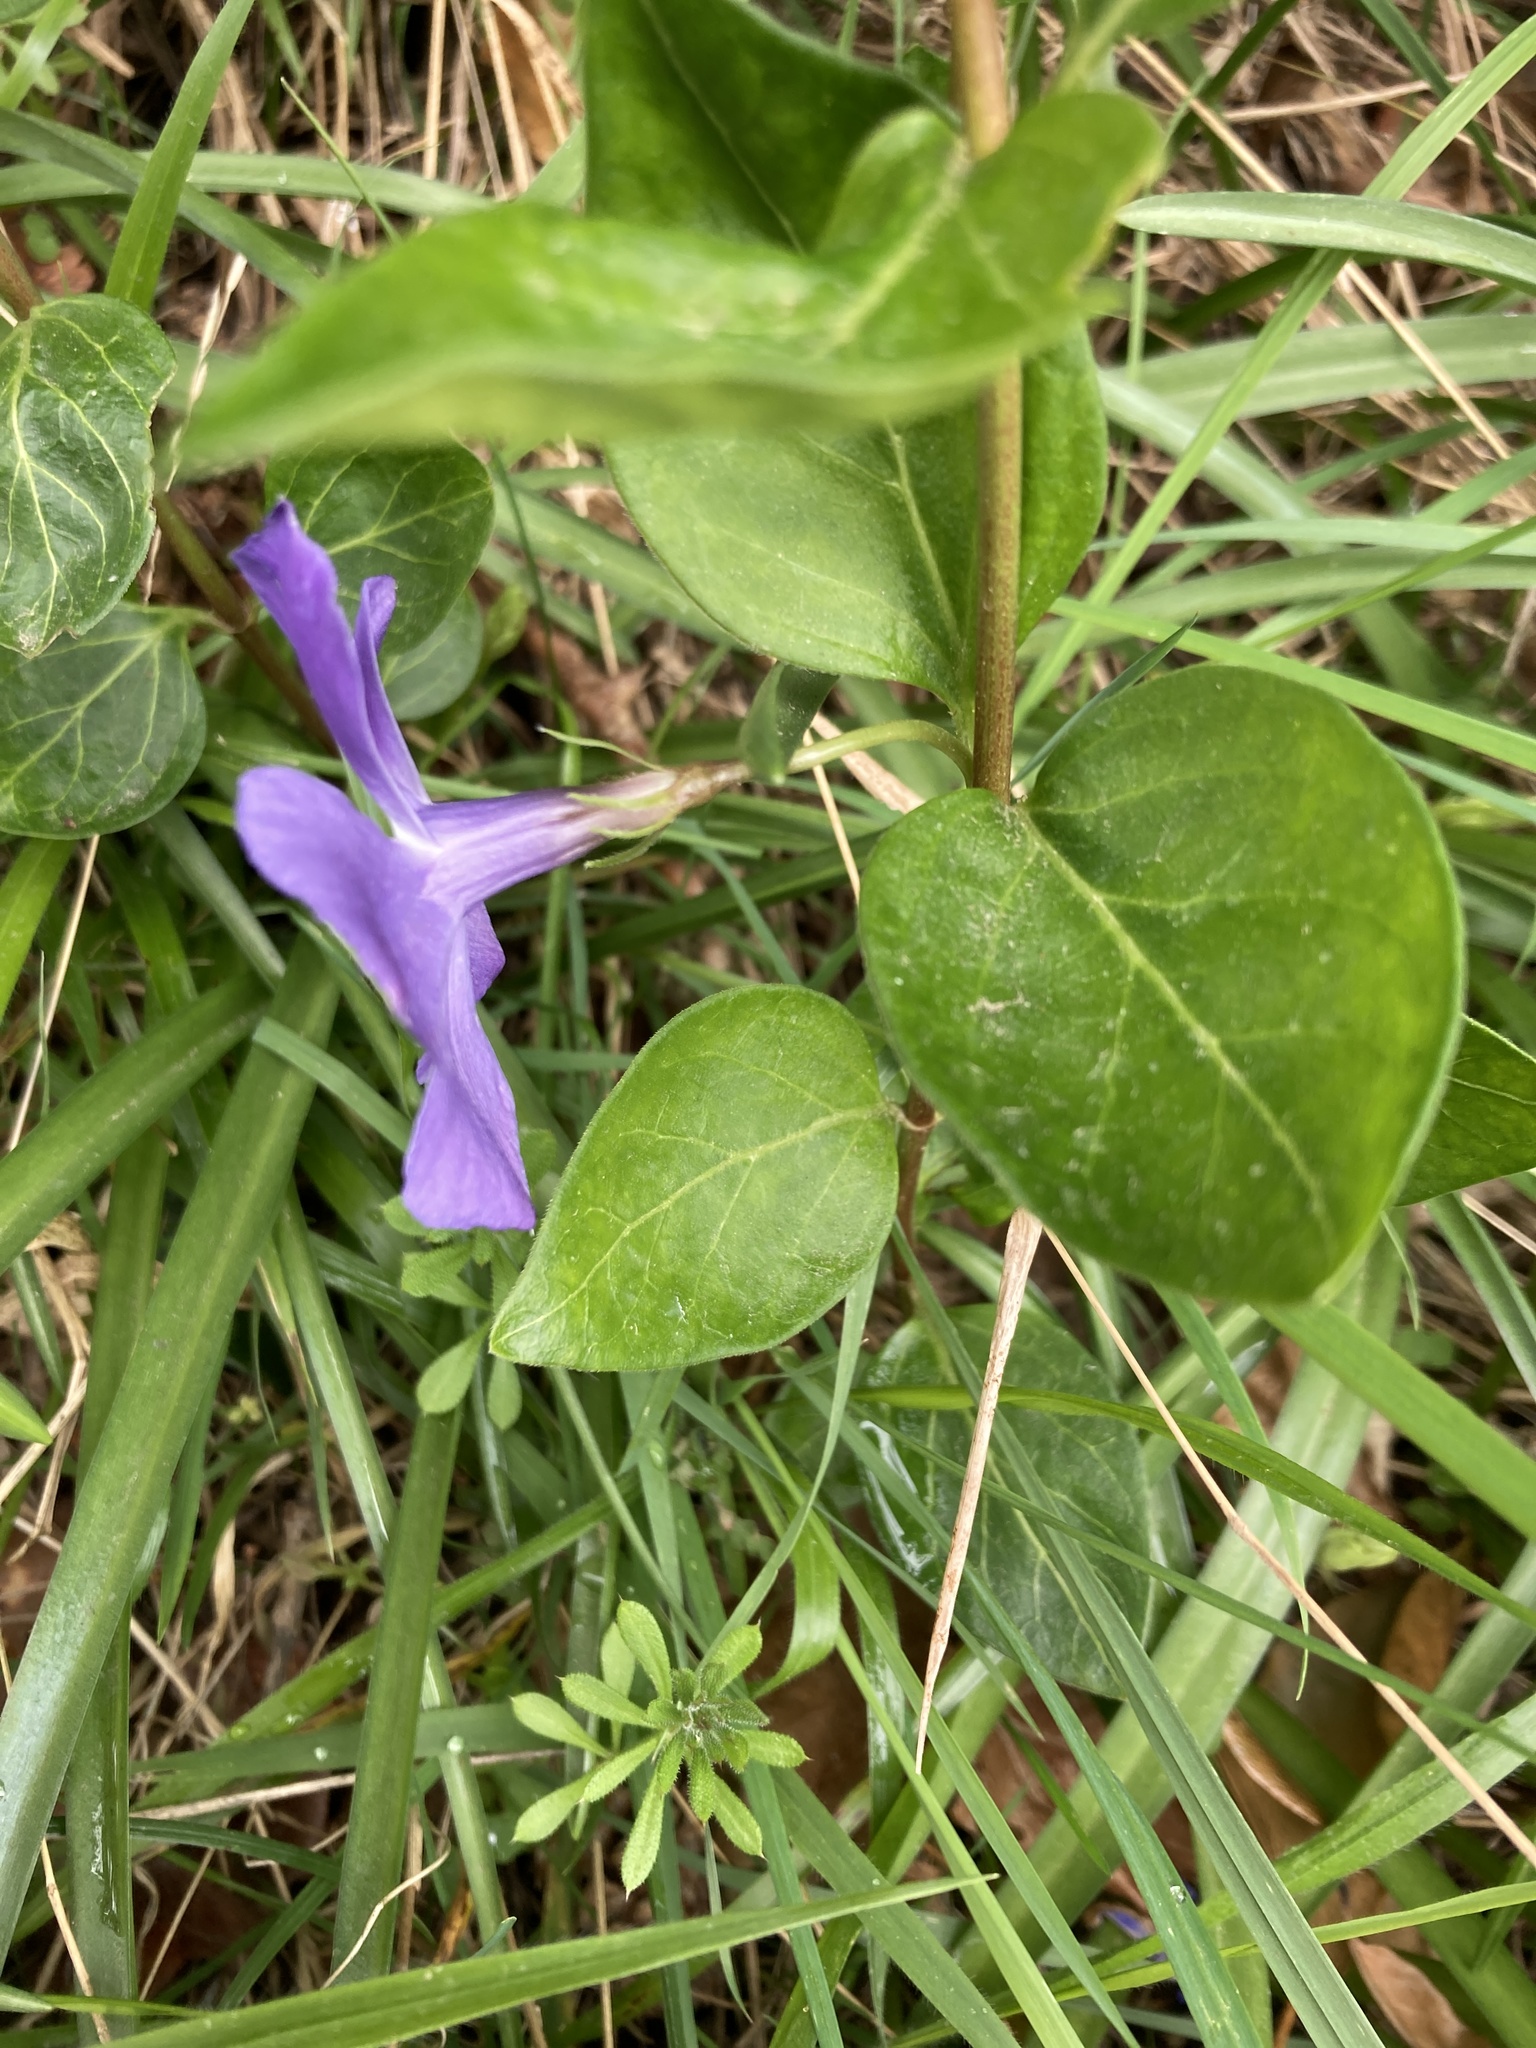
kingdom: Plantae
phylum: Tracheophyta
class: Magnoliopsida
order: Gentianales
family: Apocynaceae
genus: Vinca
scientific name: Vinca major
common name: Greater periwinkle
